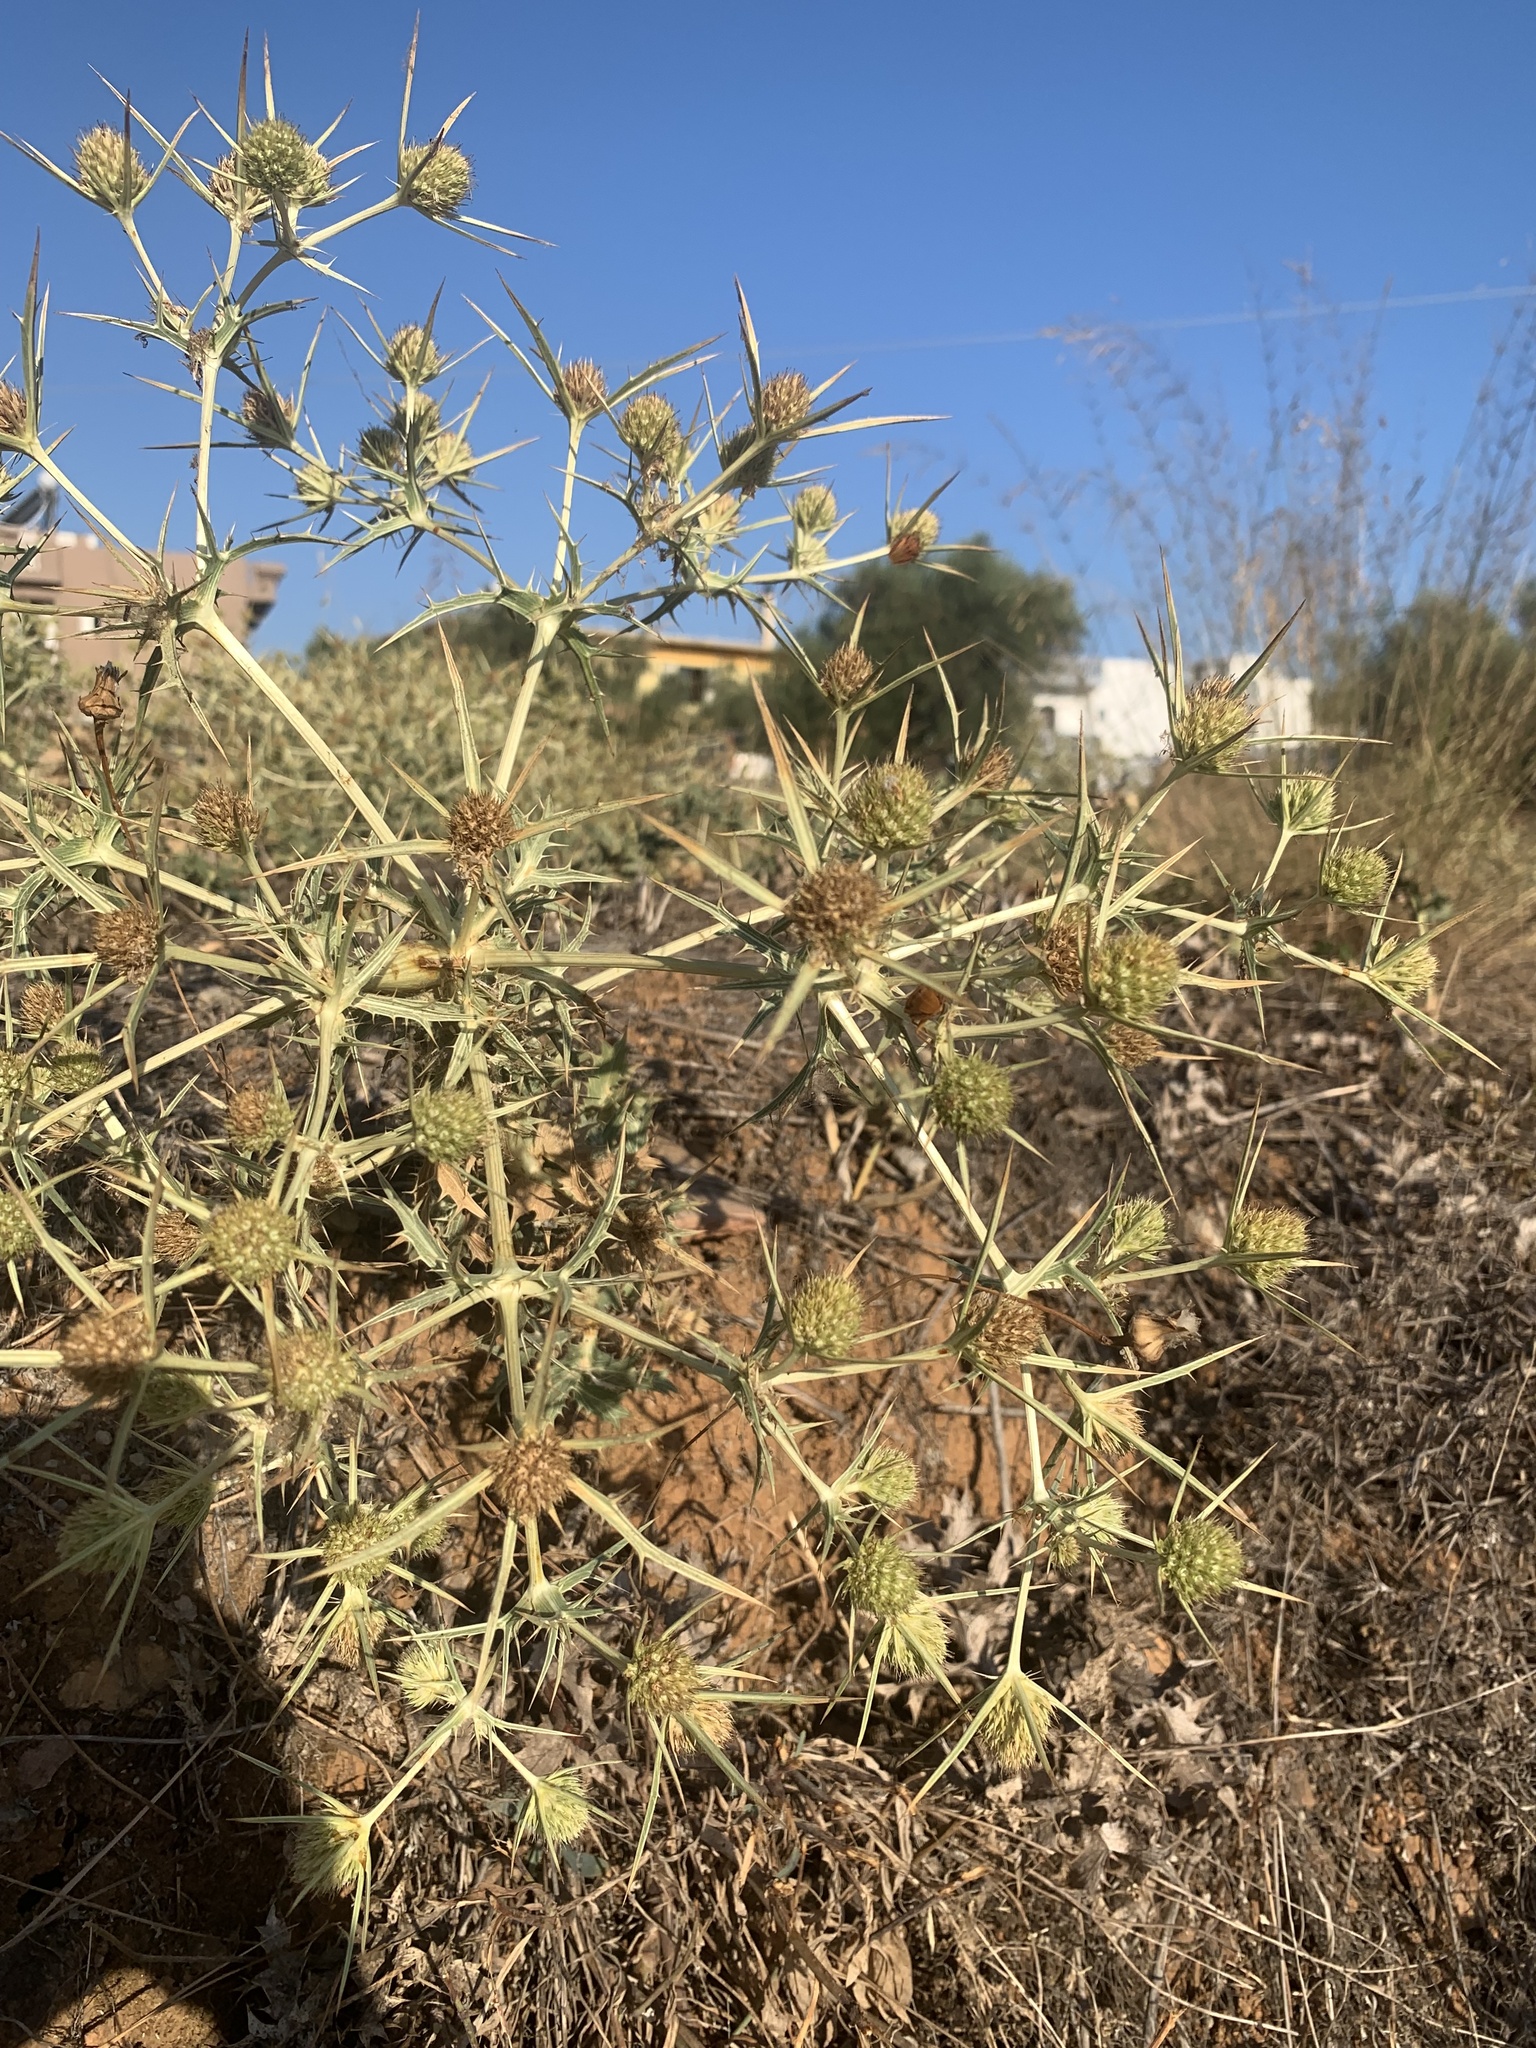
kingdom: Plantae
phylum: Tracheophyta
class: Magnoliopsida
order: Apiales
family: Apiaceae
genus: Eryngium
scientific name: Eryngium campestre
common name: Field eryngo
